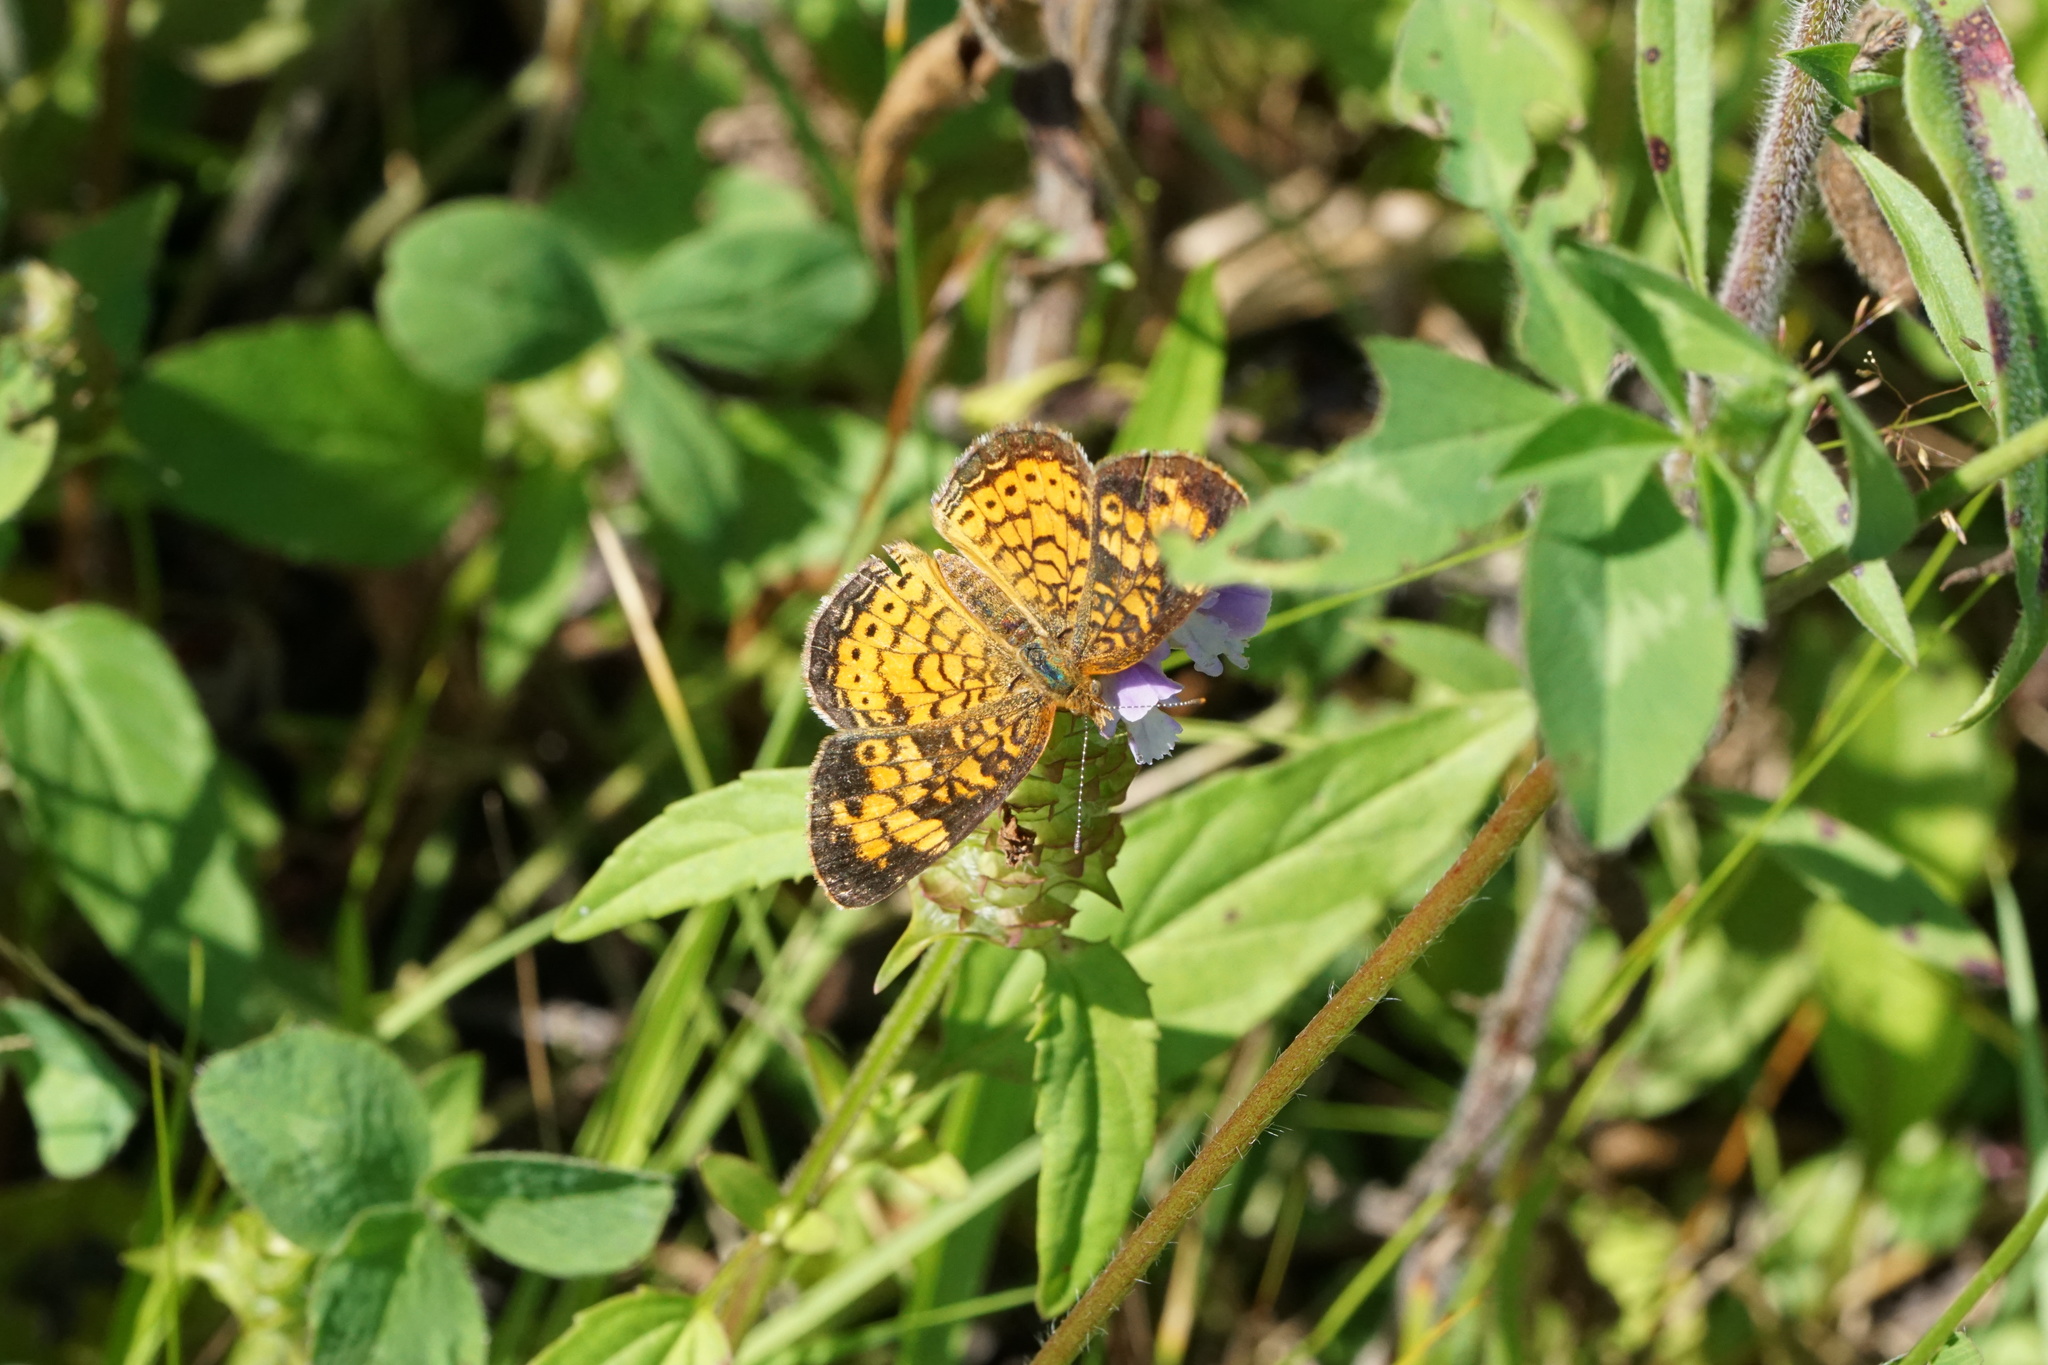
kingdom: Animalia
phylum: Arthropoda
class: Insecta
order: Lepidoptera
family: Nymphalidae
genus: Phyciodes
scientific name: Phyciodes tharos
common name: Pearl crescent
